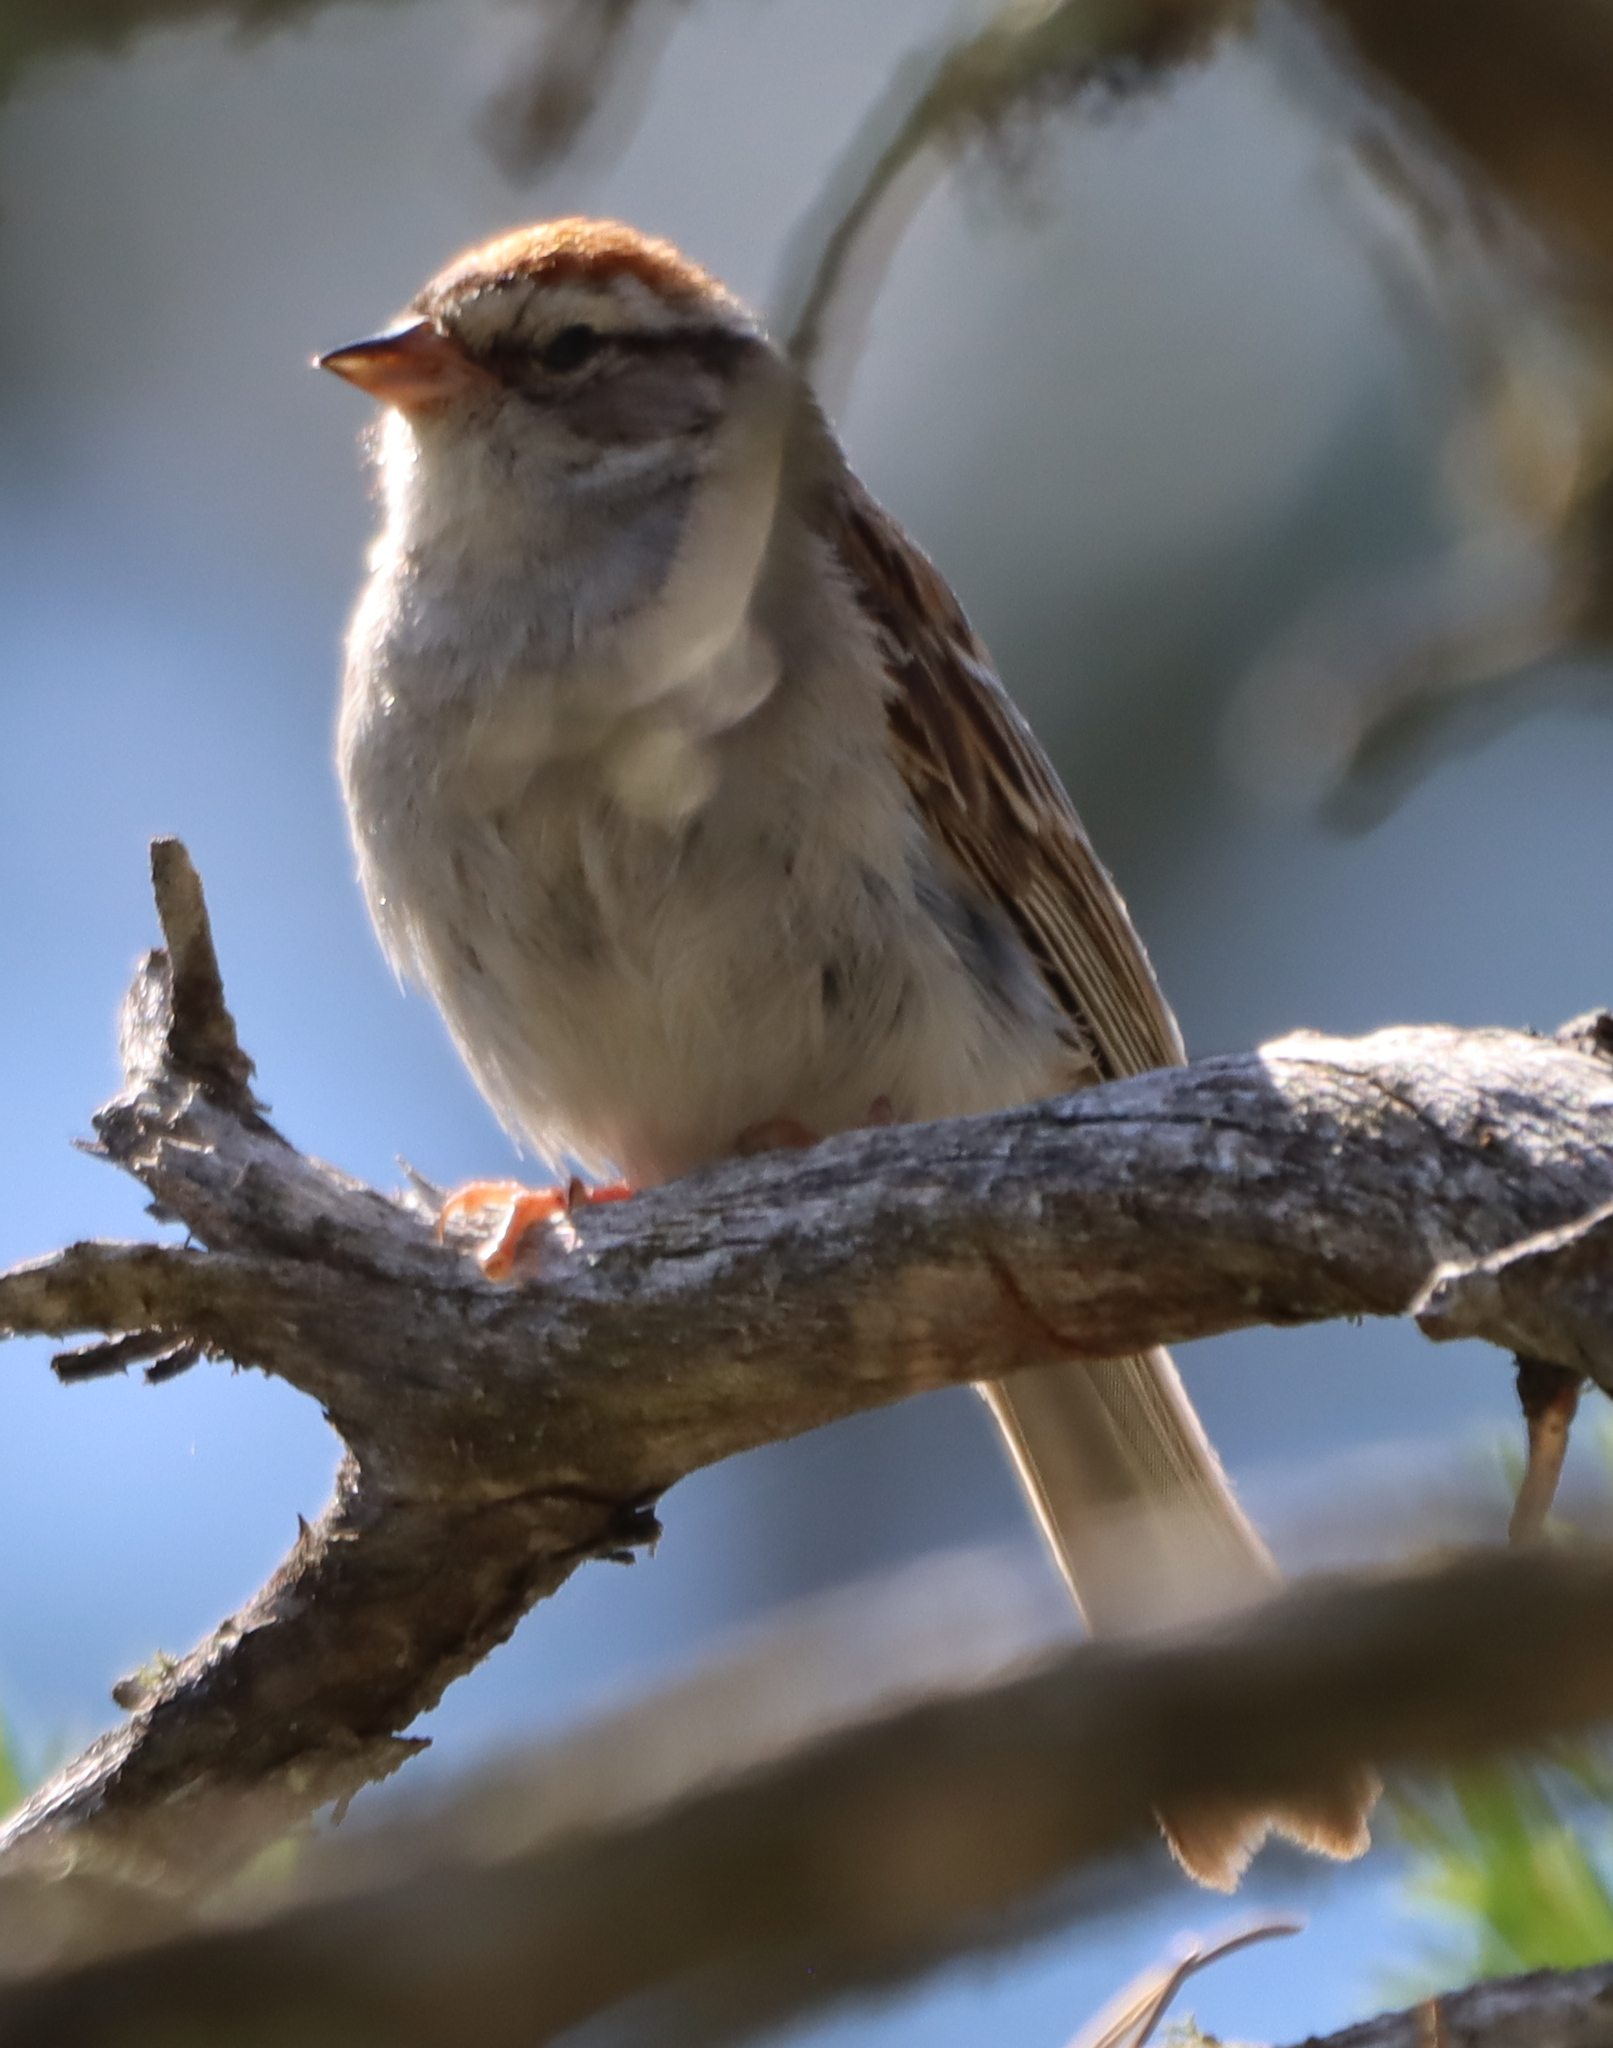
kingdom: Animalia
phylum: Chordata
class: Aves
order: Passeriformes
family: Passerellidae
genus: Spizella
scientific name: Spizella passerina
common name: Chipping sparrow
